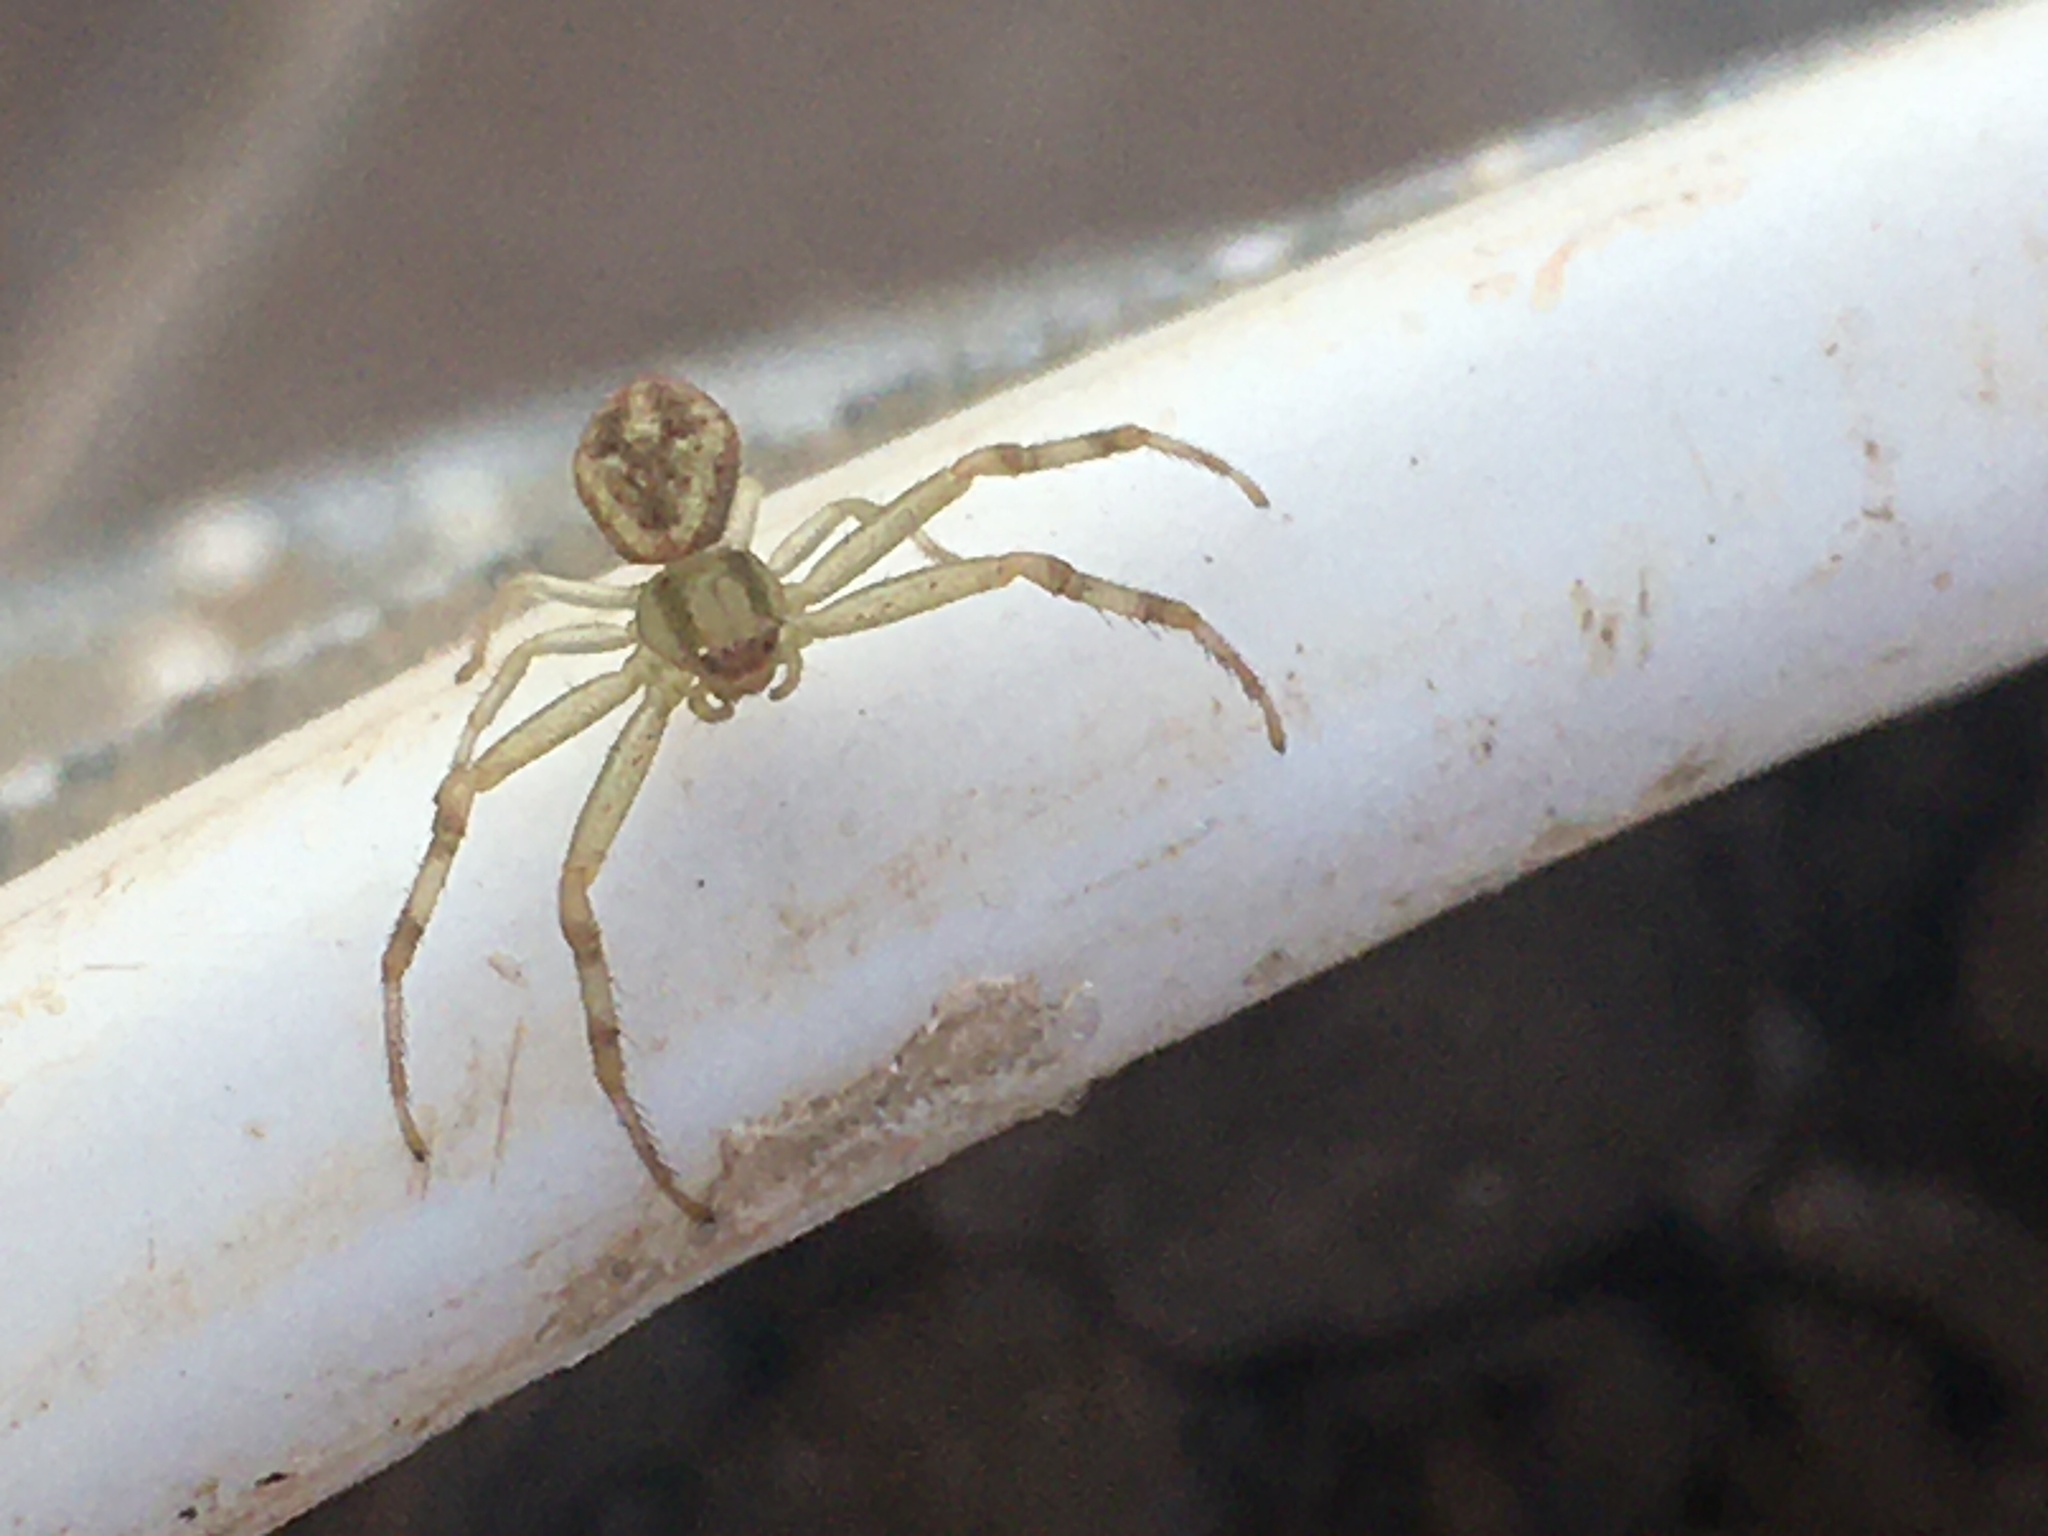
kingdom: Animalia
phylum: Arthropoda
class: Arachnida
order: Araneae
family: Thomisidae
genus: Misumenops
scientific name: Misumenops
